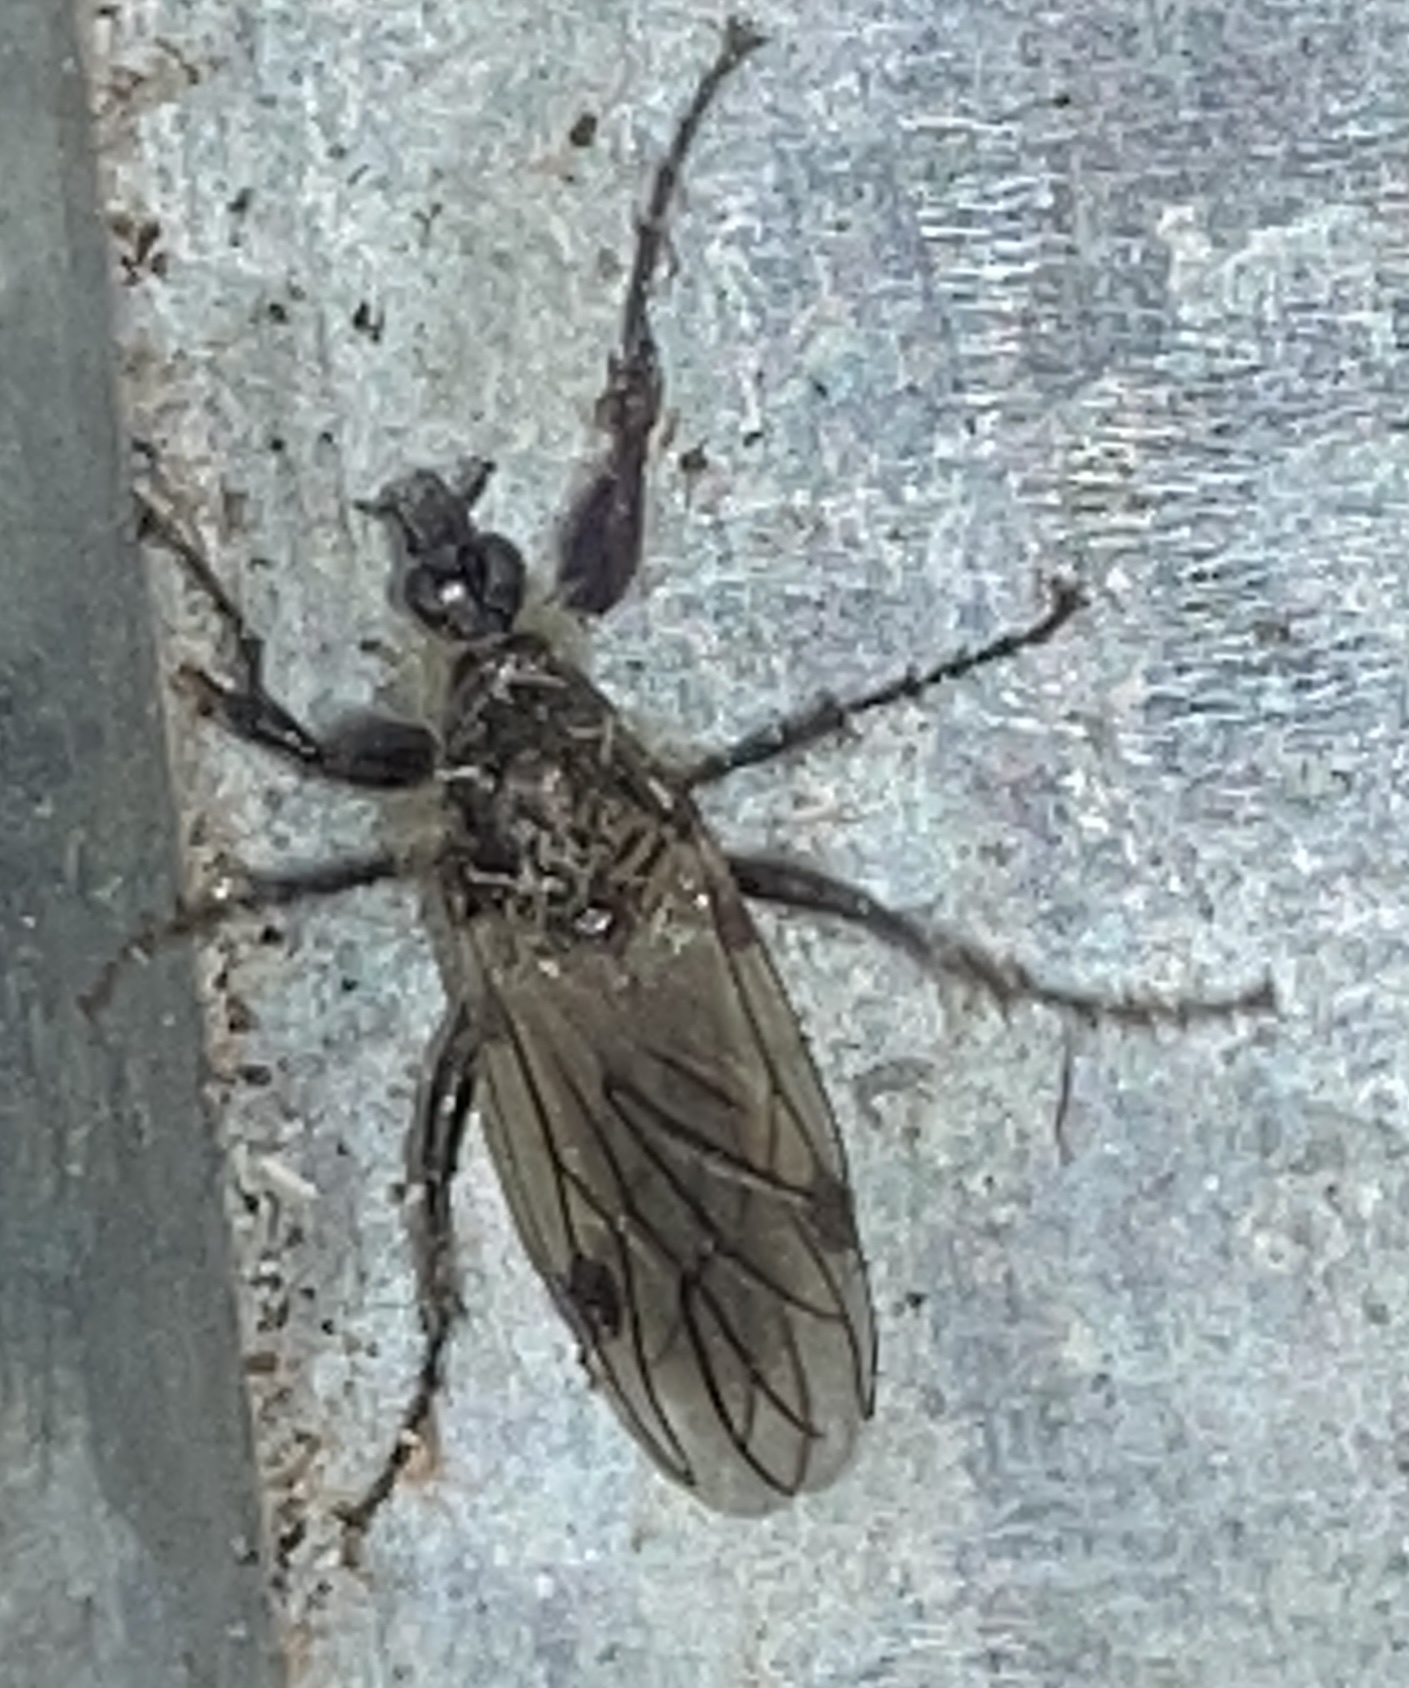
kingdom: Animalia
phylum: Arthropoda
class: Insecta
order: Diptera
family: Bibionidae
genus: Bibio
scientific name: Bibio albipennis
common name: White-winged march fly
